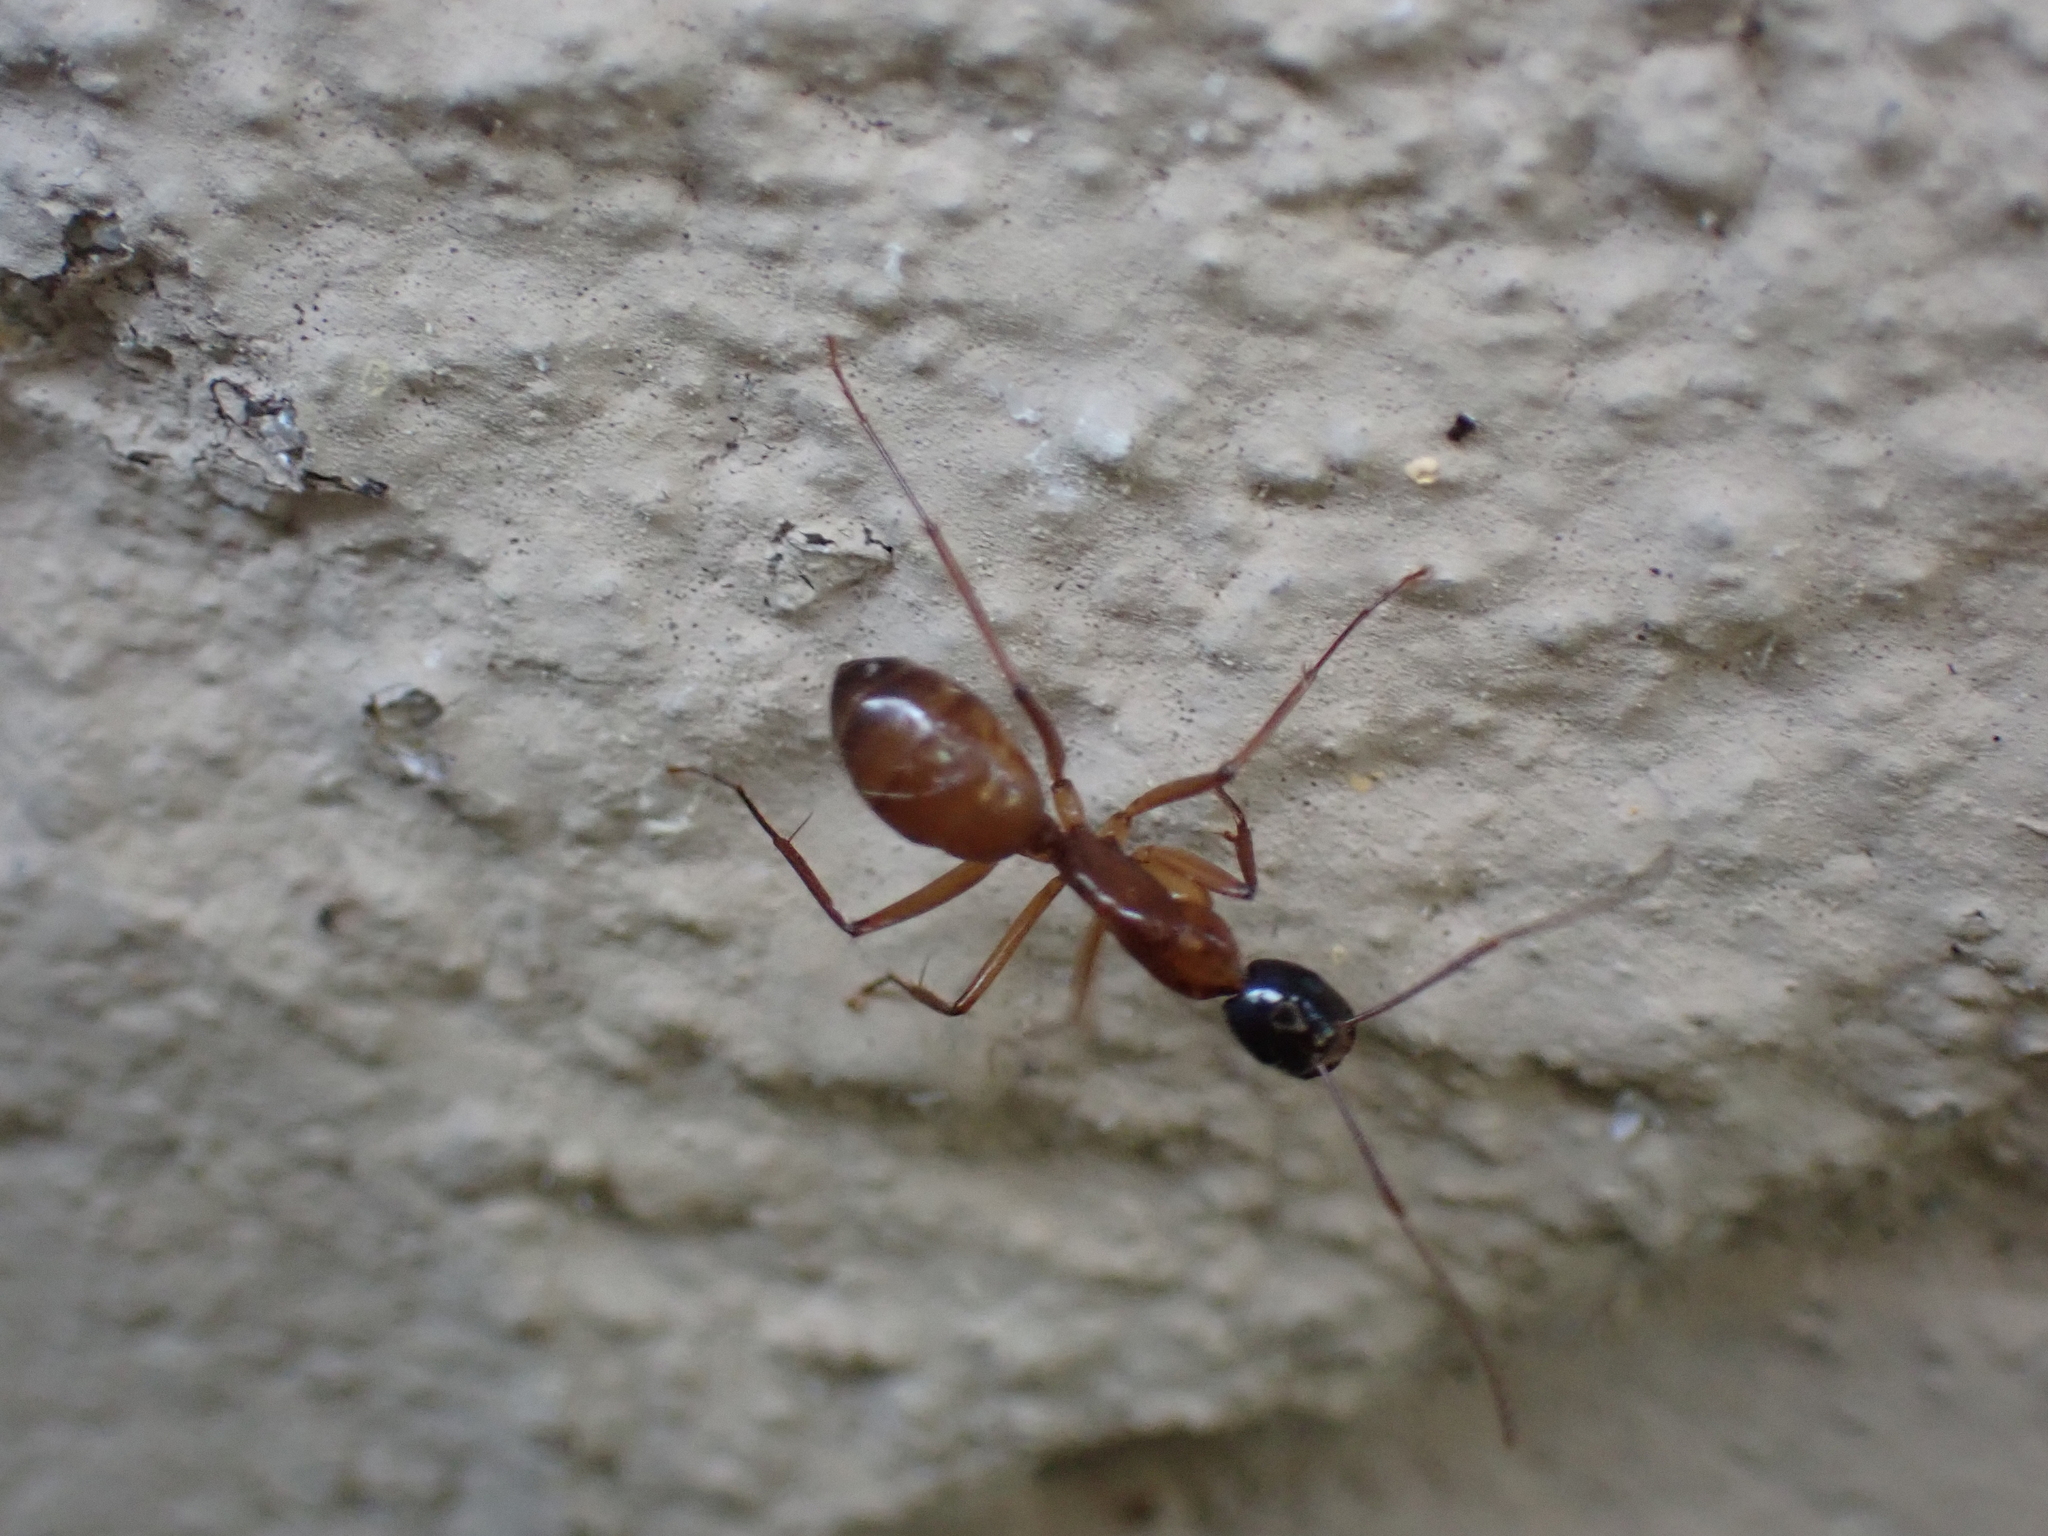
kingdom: Animalia
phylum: Arthropoda
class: Insecta
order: Hymenoptera
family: Formicidae
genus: Camponotus
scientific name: Camponotus americanus
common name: American carpenter ant
